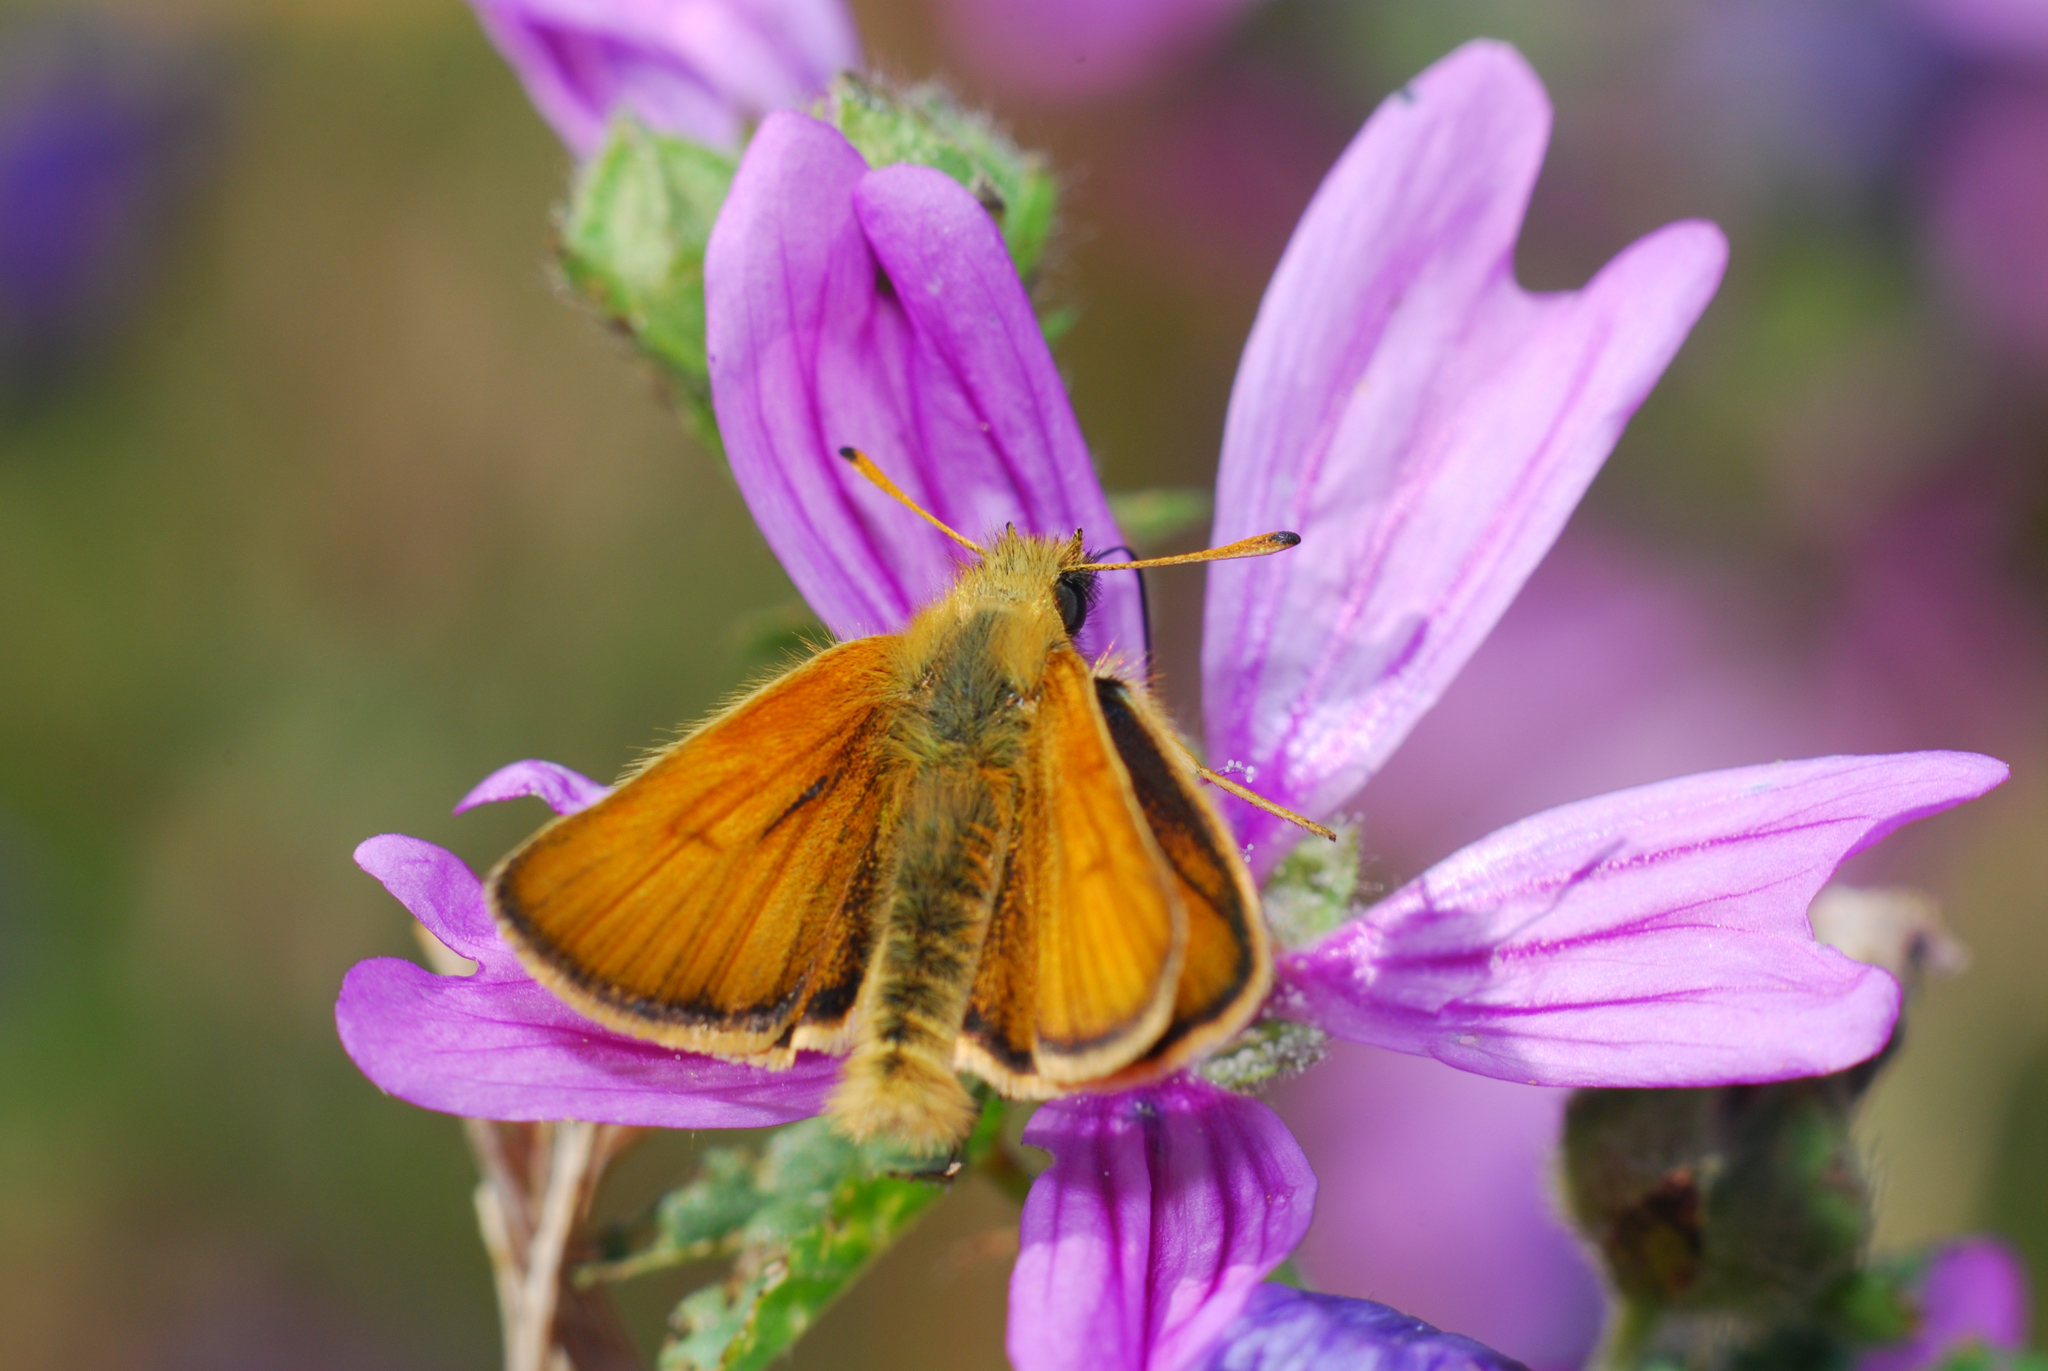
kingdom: Animalia
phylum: Arthropoda
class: Insecta
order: Lepidoptera
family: Hesperiidae
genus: Thymelicus
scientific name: Thymelicus lineola
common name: Essex skipper
